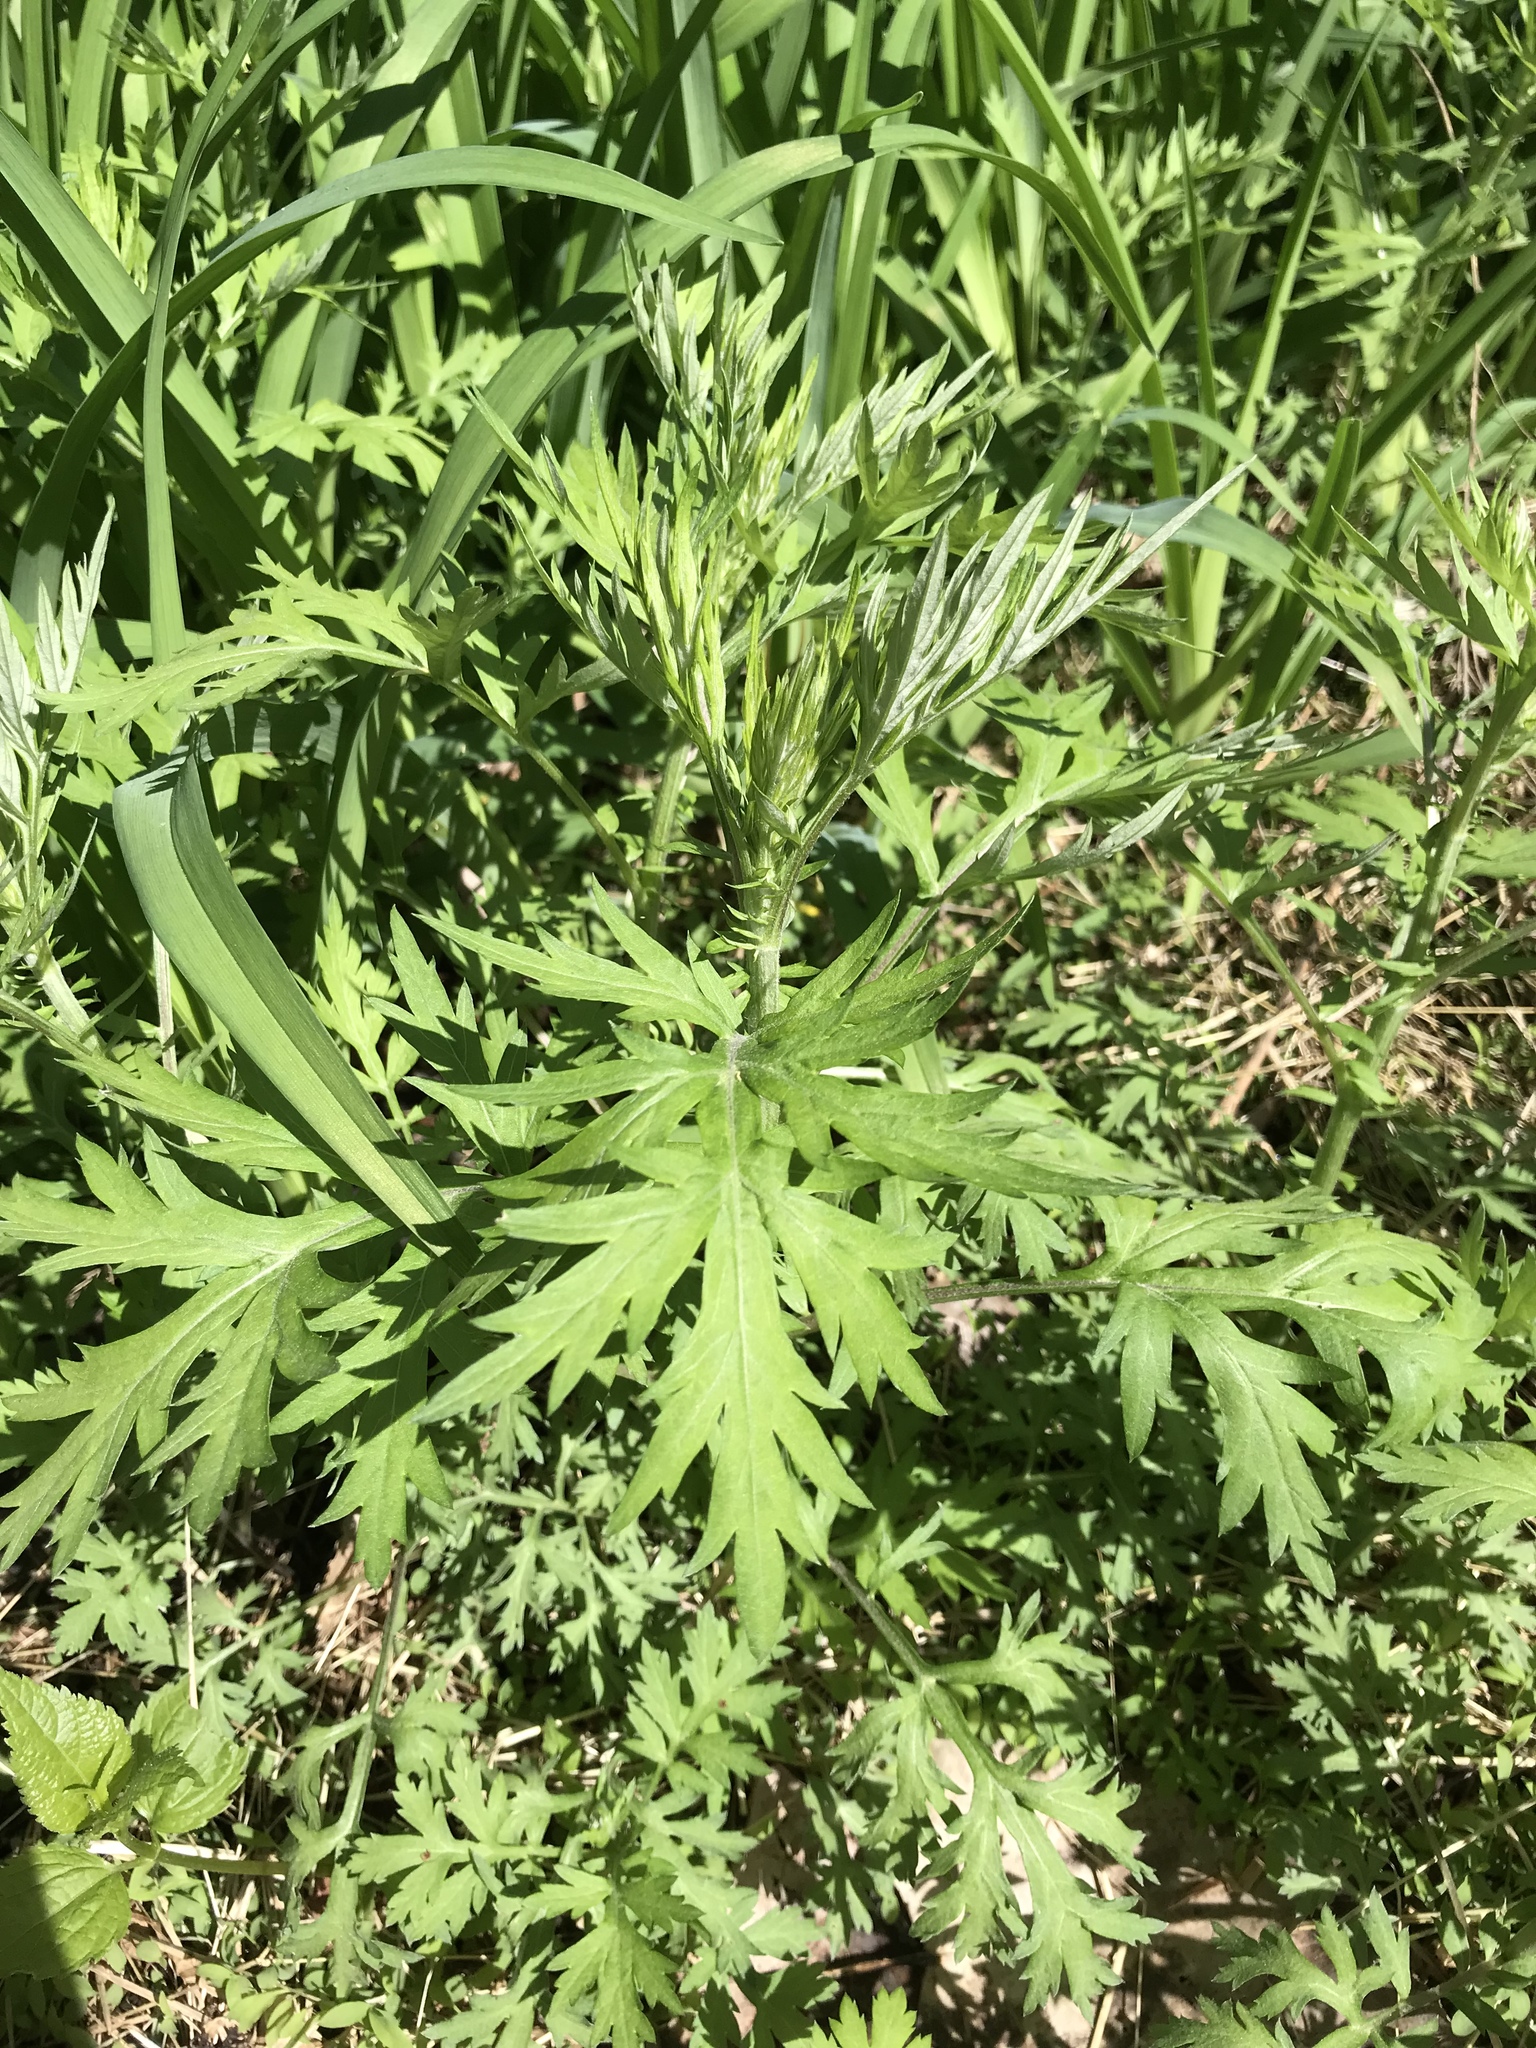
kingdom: Plantae
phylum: Tracheophyta
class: Magnoliopsida
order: Asterales
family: Asteraceae
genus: Artemisia
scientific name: Artemisia vulgaris
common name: Mugwort
